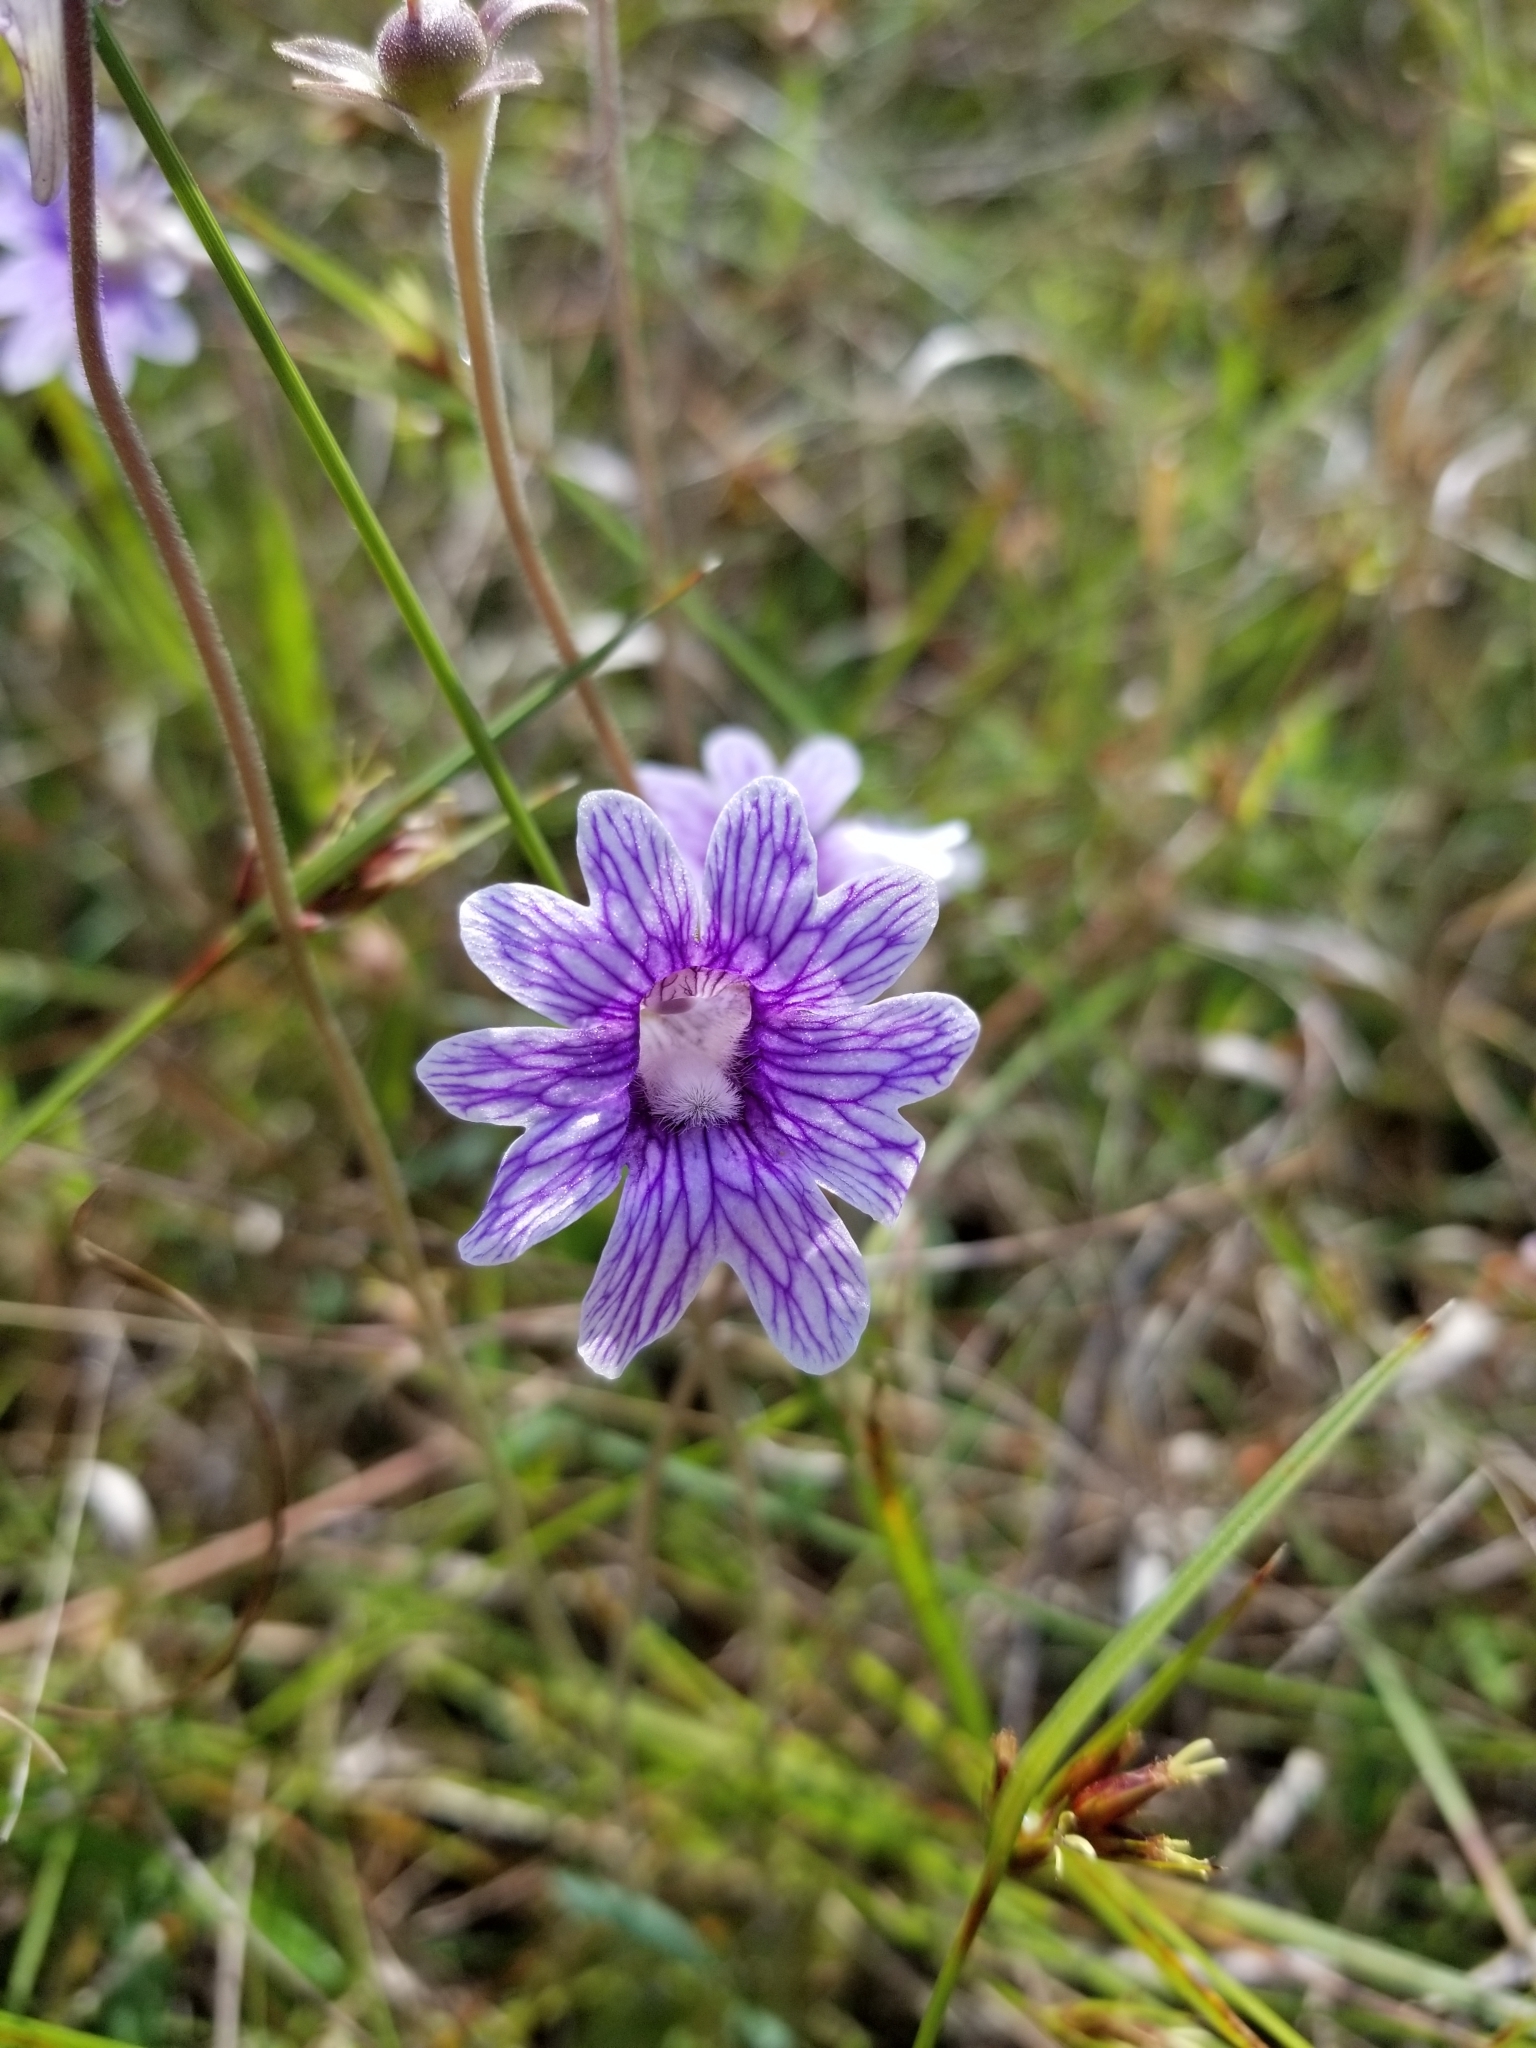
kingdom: Plantae
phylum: Tracheophyta
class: Magnoliopsida
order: Lamiales
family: Lentibulariaceae
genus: Pinguicula
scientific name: Pinguicula caerulea
